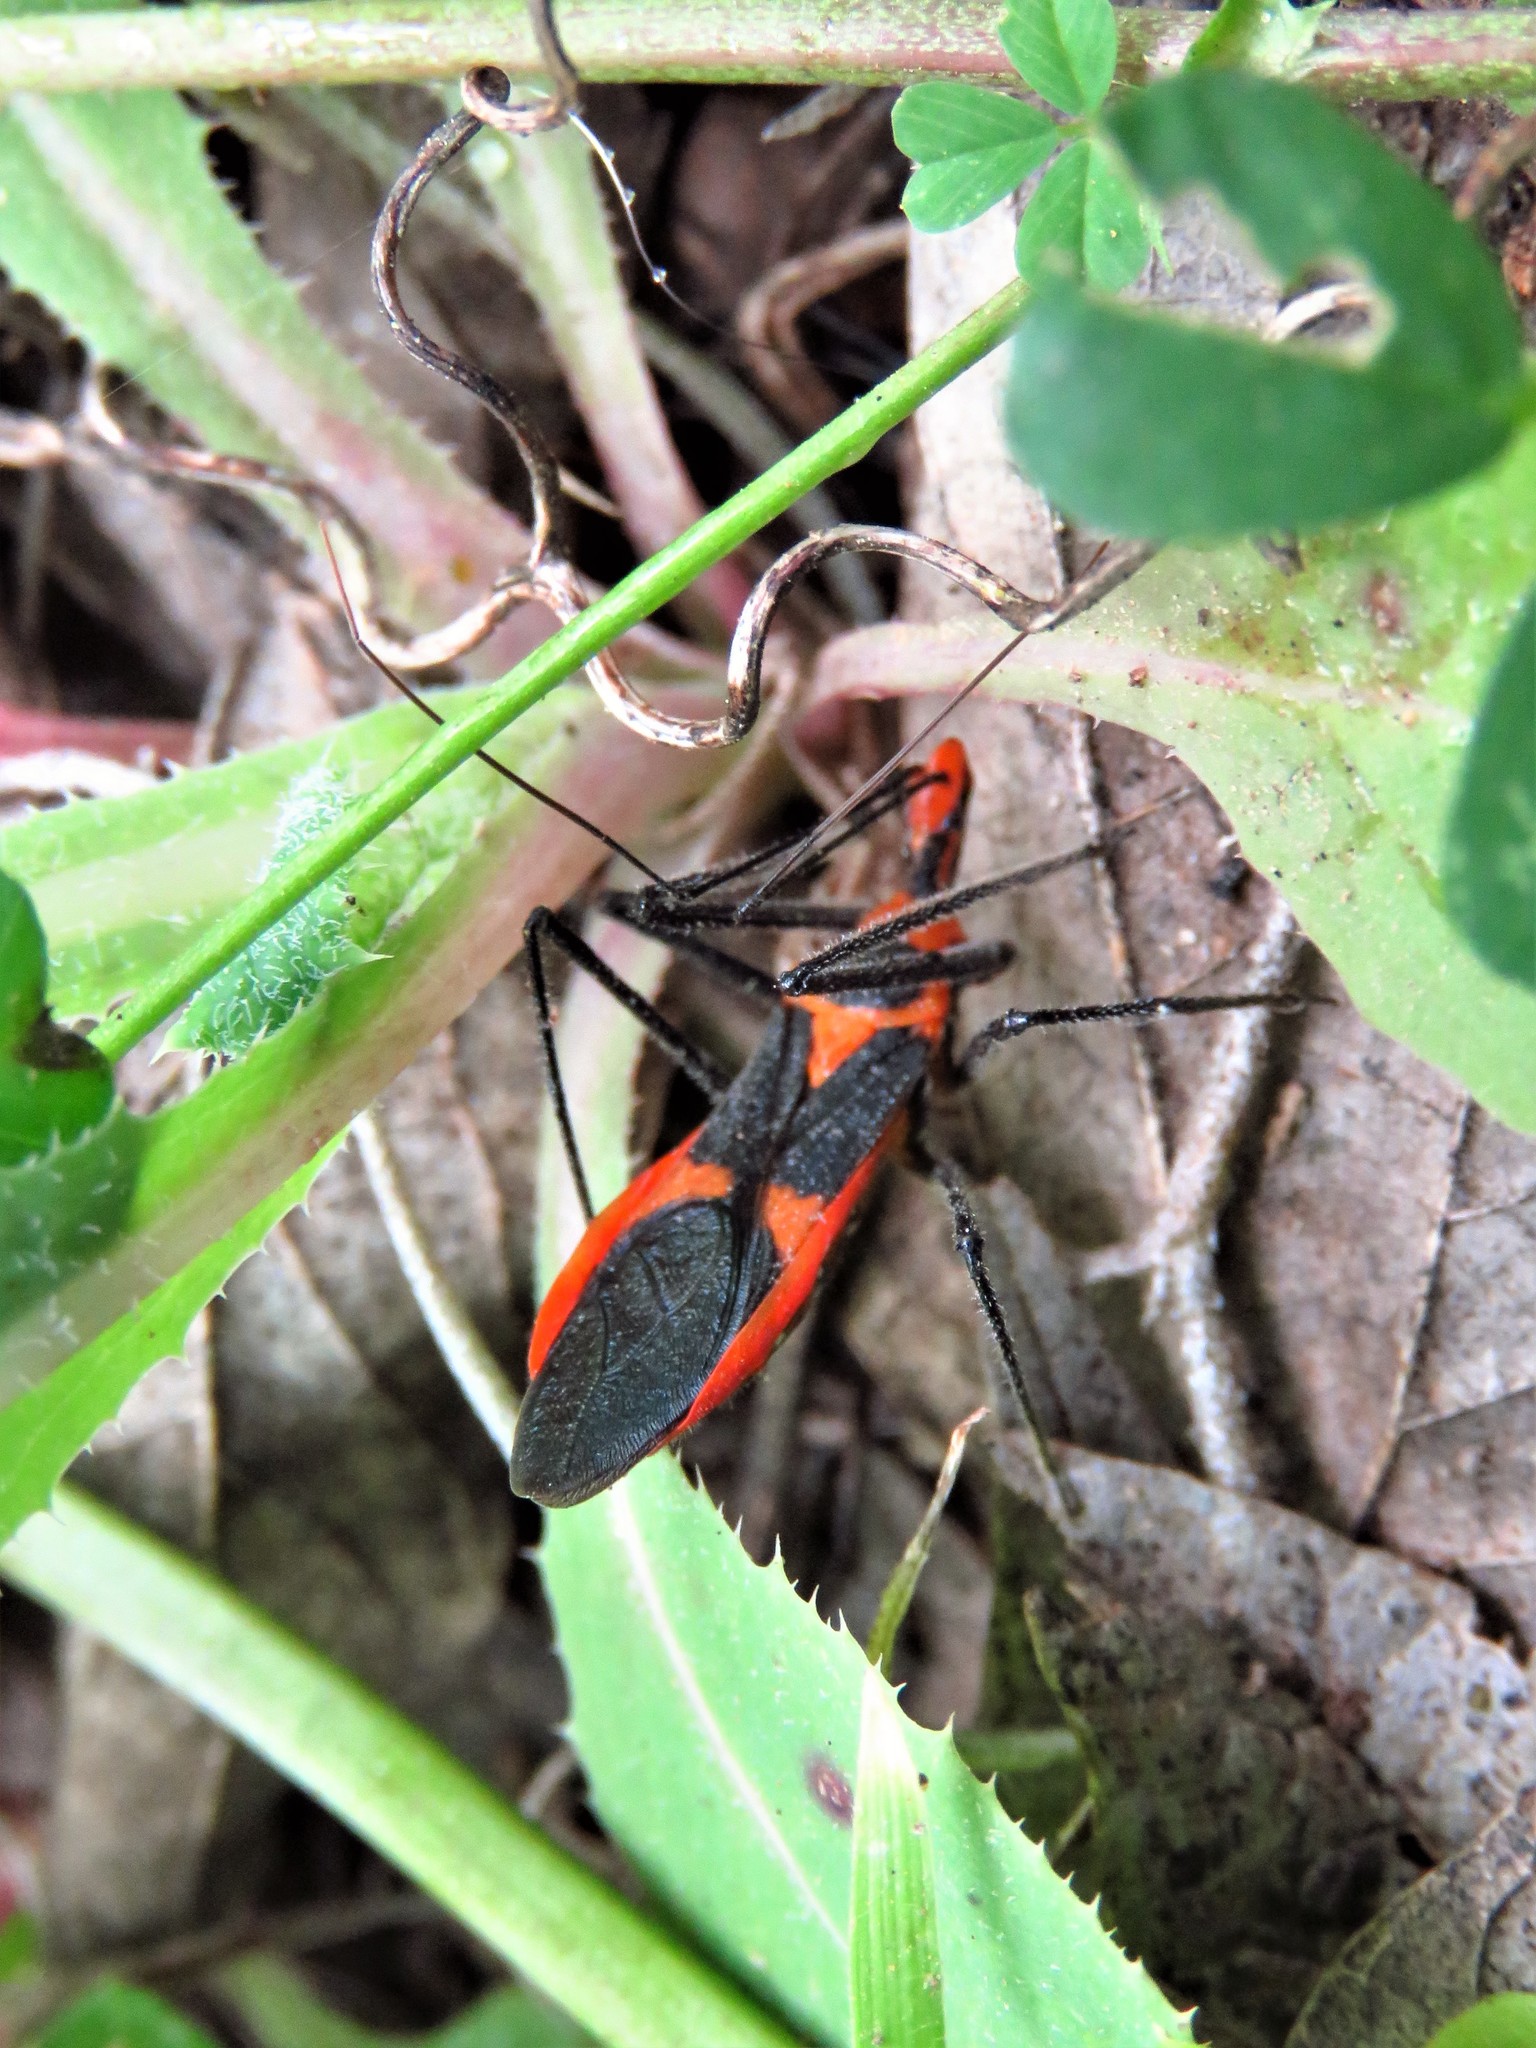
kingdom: Animalia
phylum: Arthropoda
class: Insecta
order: Hemiptera
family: Reduviidae
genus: Zelus
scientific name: Zelus longipes
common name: Milkweed assassin bug
